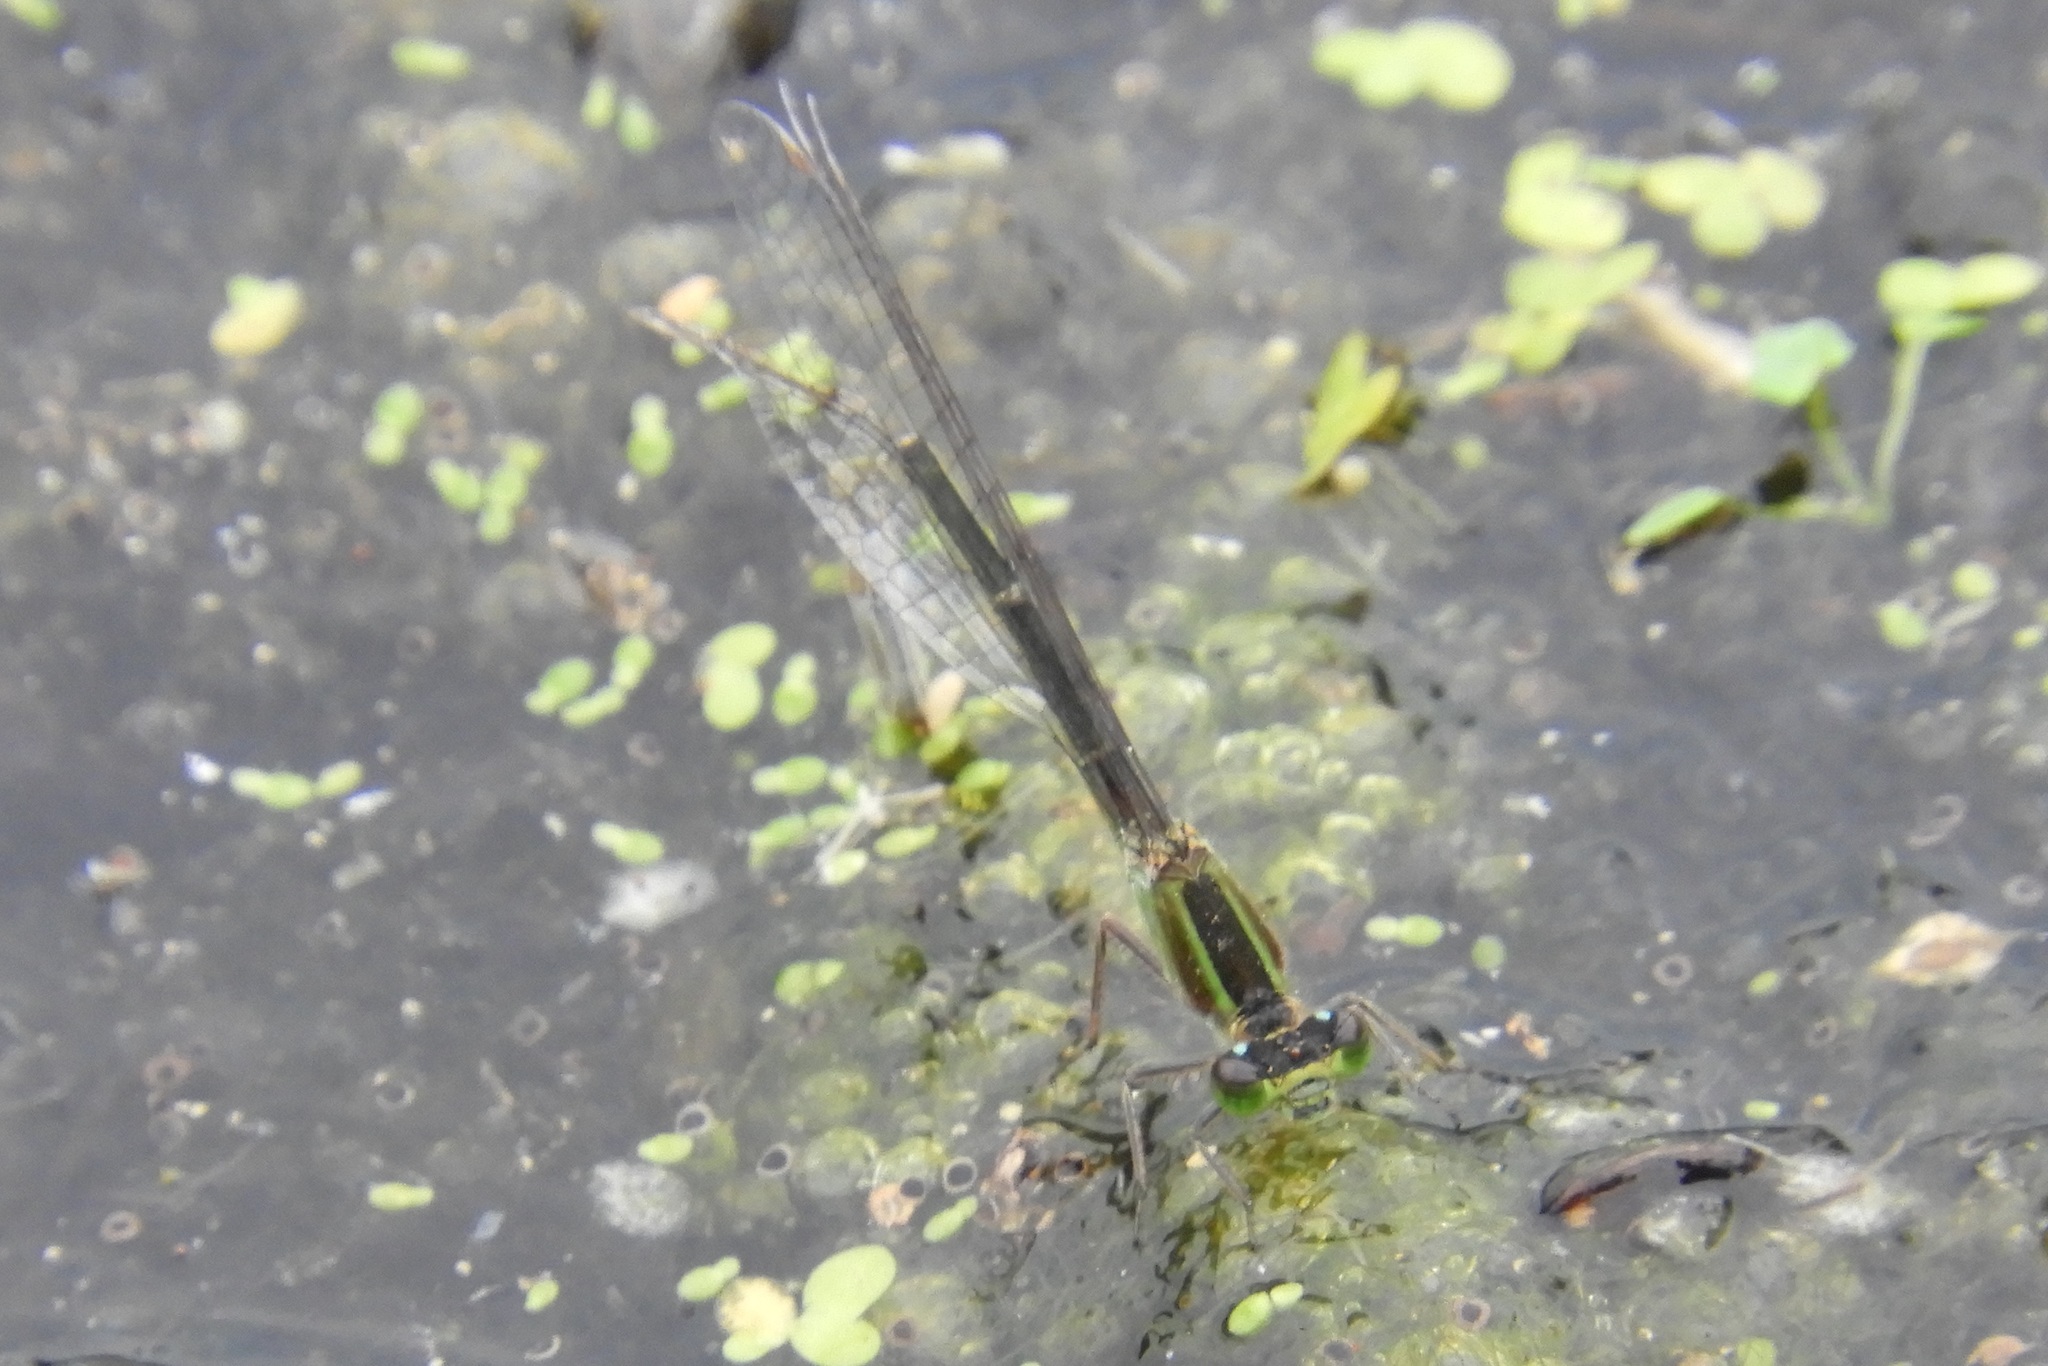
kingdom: Animalia
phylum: Arthropoda
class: Insecta
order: Odonata
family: Coenagrionidae
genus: Ischnura
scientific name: Ischnura ramburii
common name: Rambur's forktail
